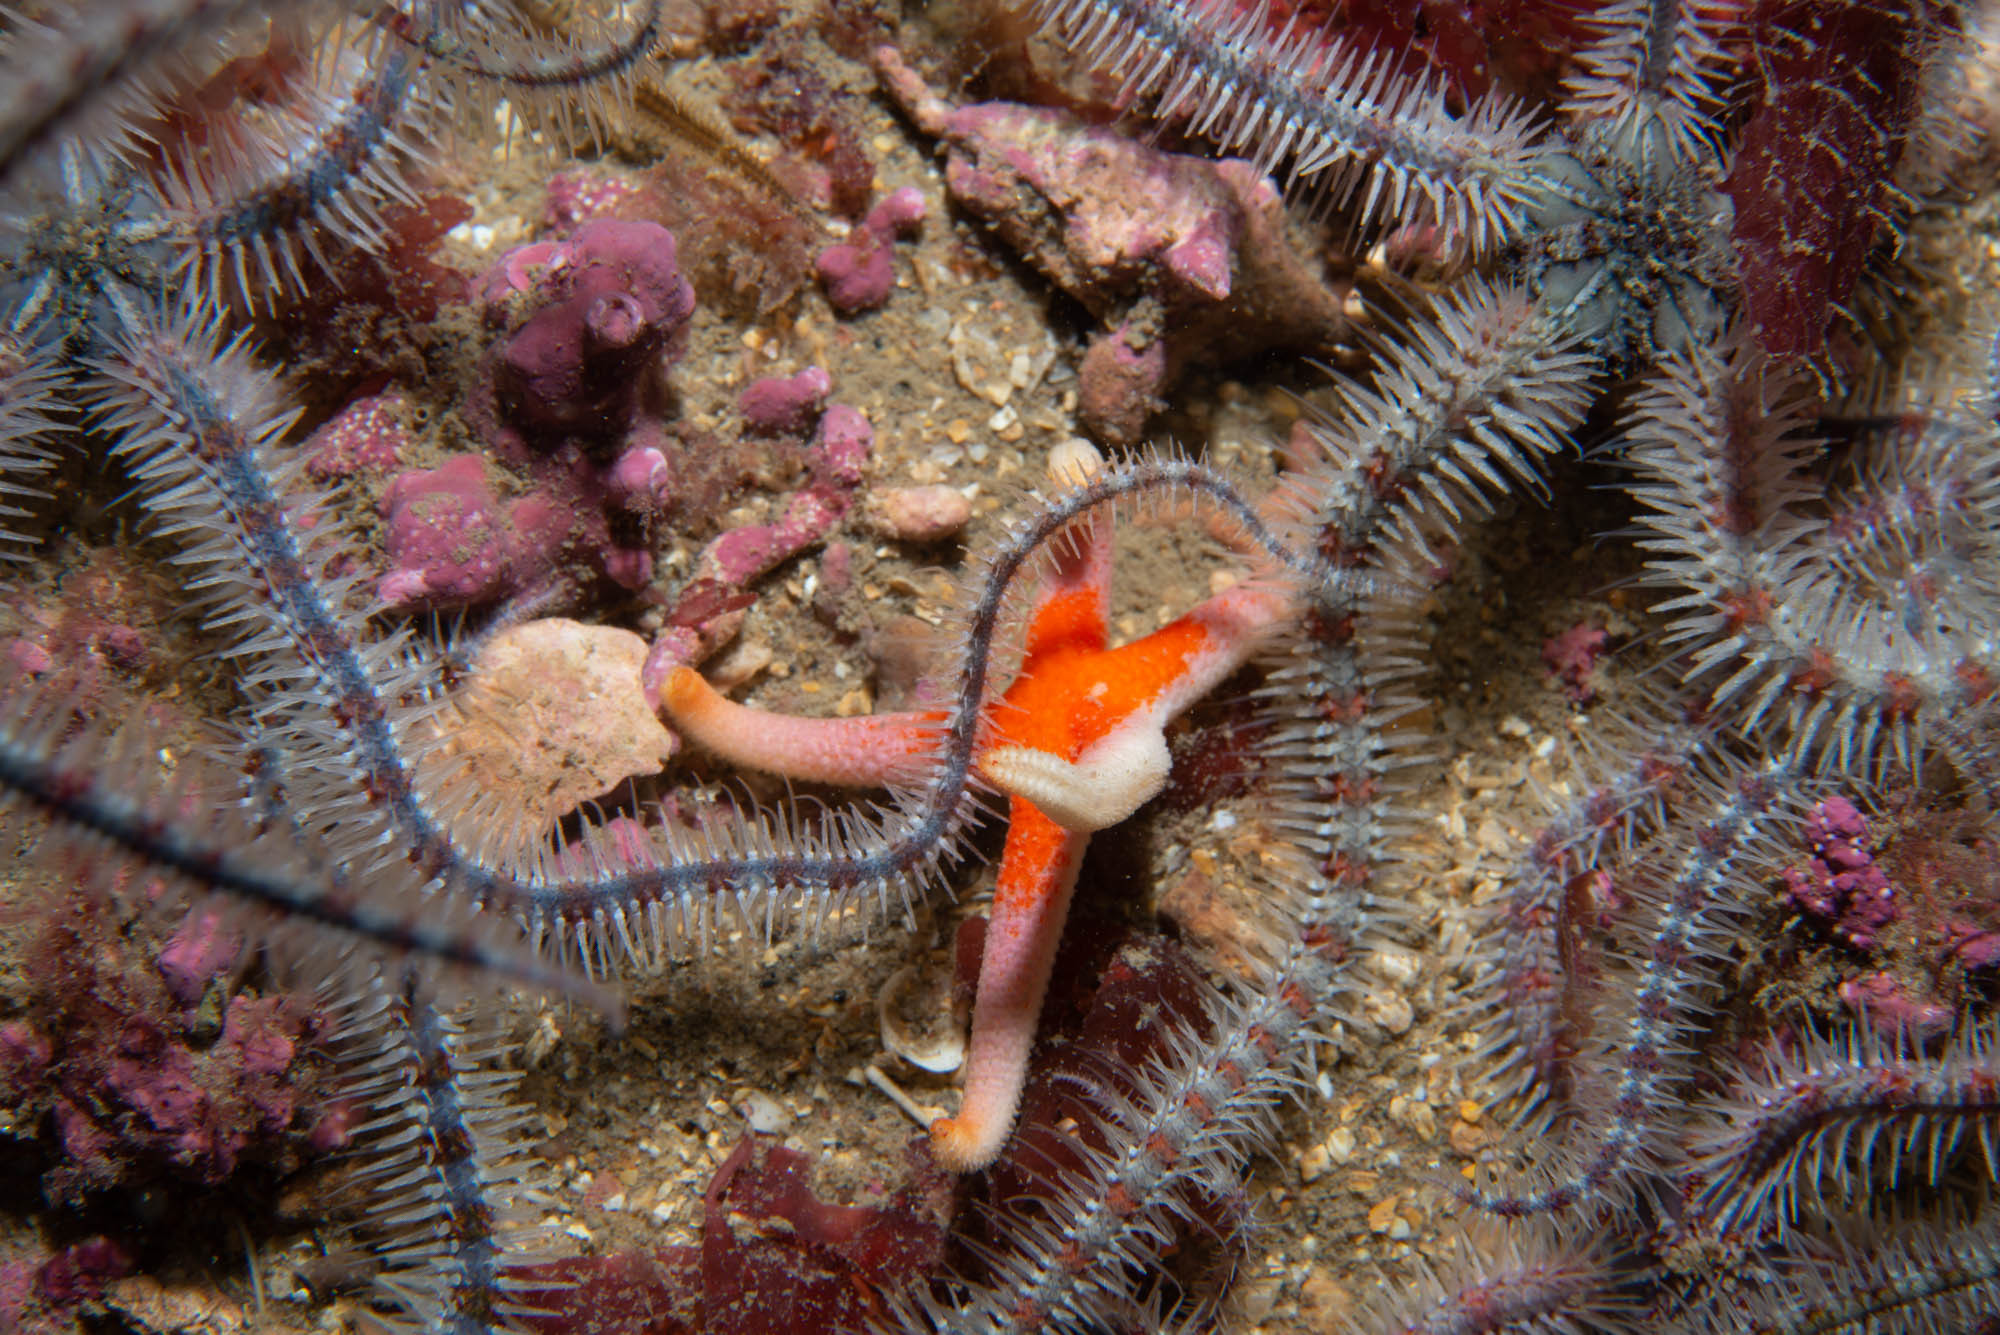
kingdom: Animalia
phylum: Echinodermata
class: Asteroidea
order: Spinulosida
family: Echinasteridae
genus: Henricia
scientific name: Henricia oculata
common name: Bloody henry starfish
